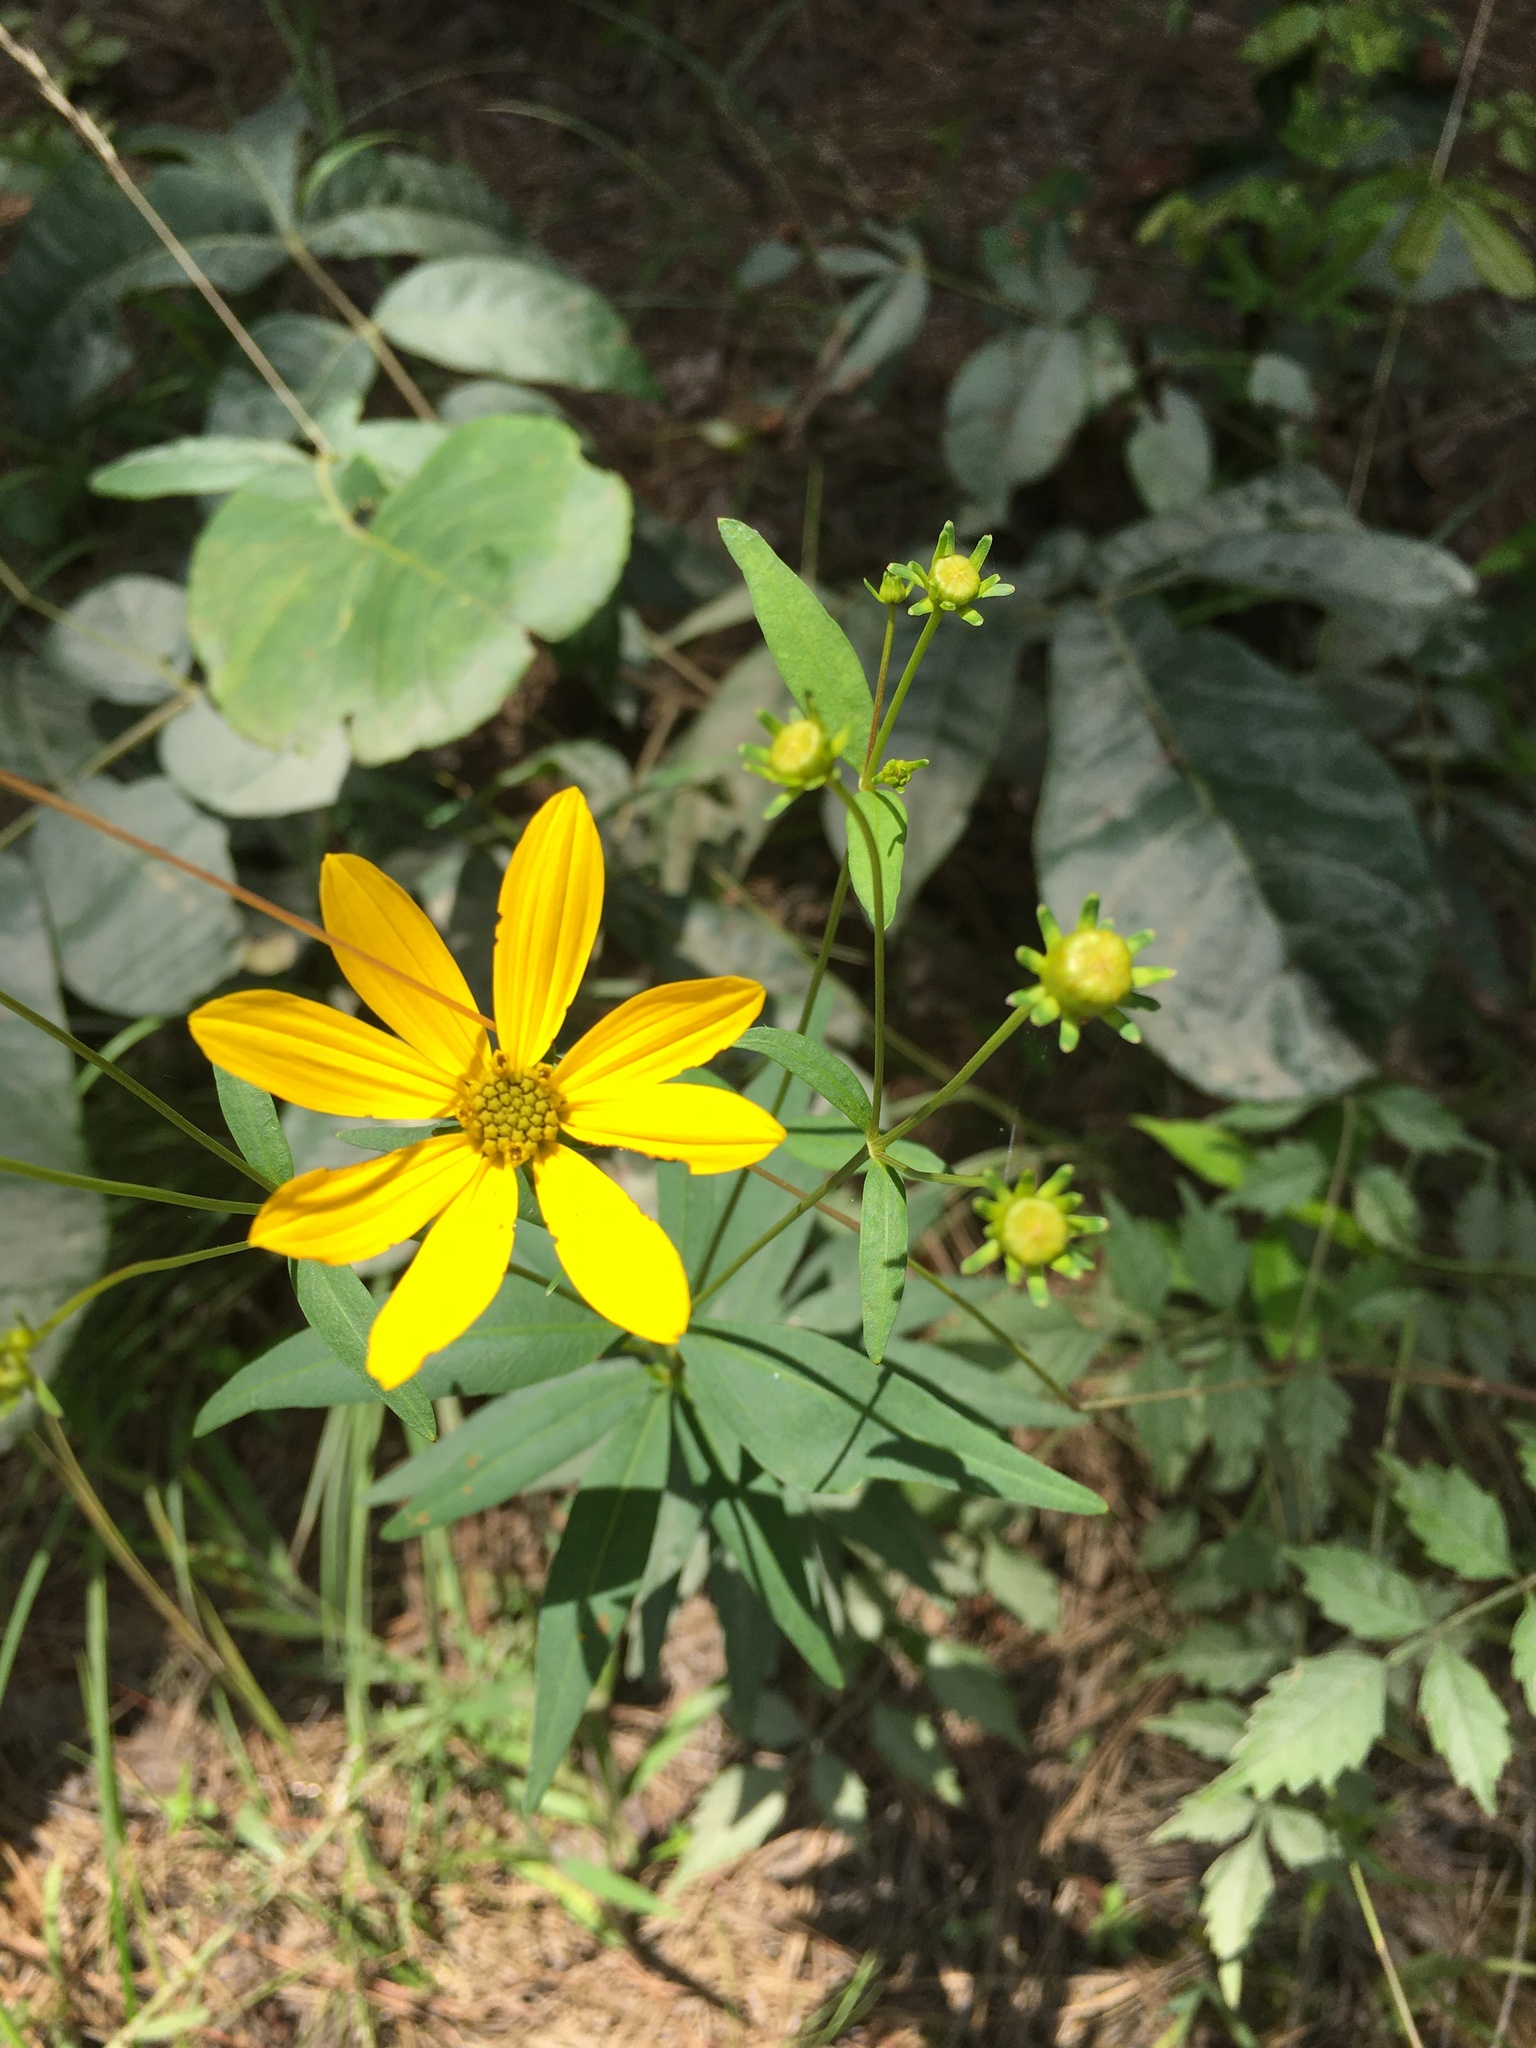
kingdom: Plantae
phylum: Tracheophyta
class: Magnoliopsida
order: Asterales
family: Asteraceae
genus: Coreopsis
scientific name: Coreopsis major
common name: Forest tickseed
